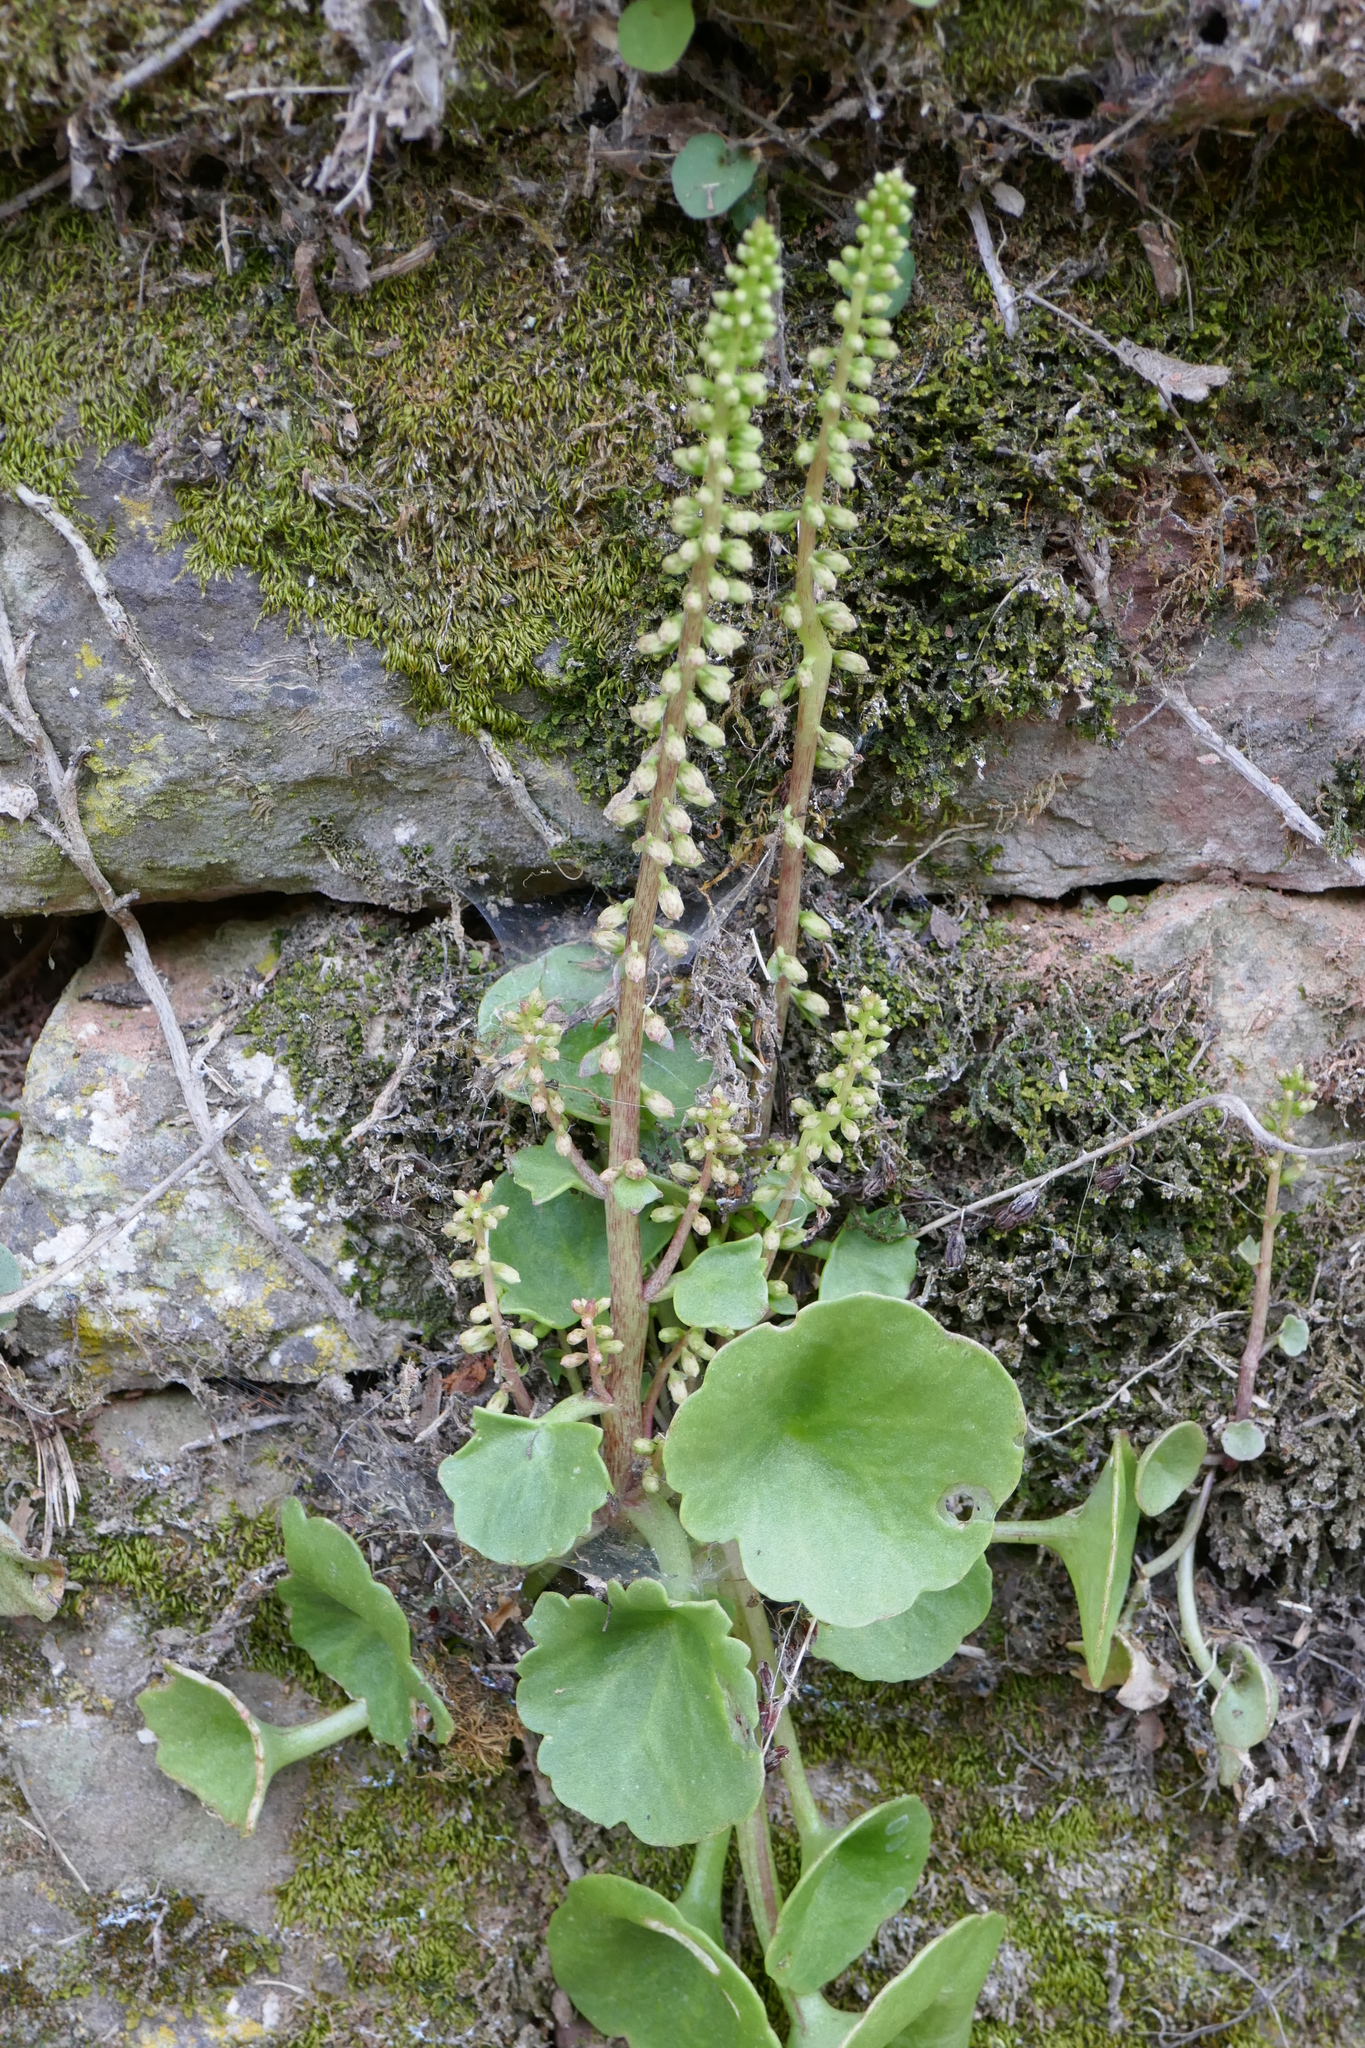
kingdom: Plantae
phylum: Tracheophyta
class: Magnoliopsida
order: Saxifragales
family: Crassulaceae
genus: Umbilicus
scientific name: Umbilicus rupestris
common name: Navelwort
